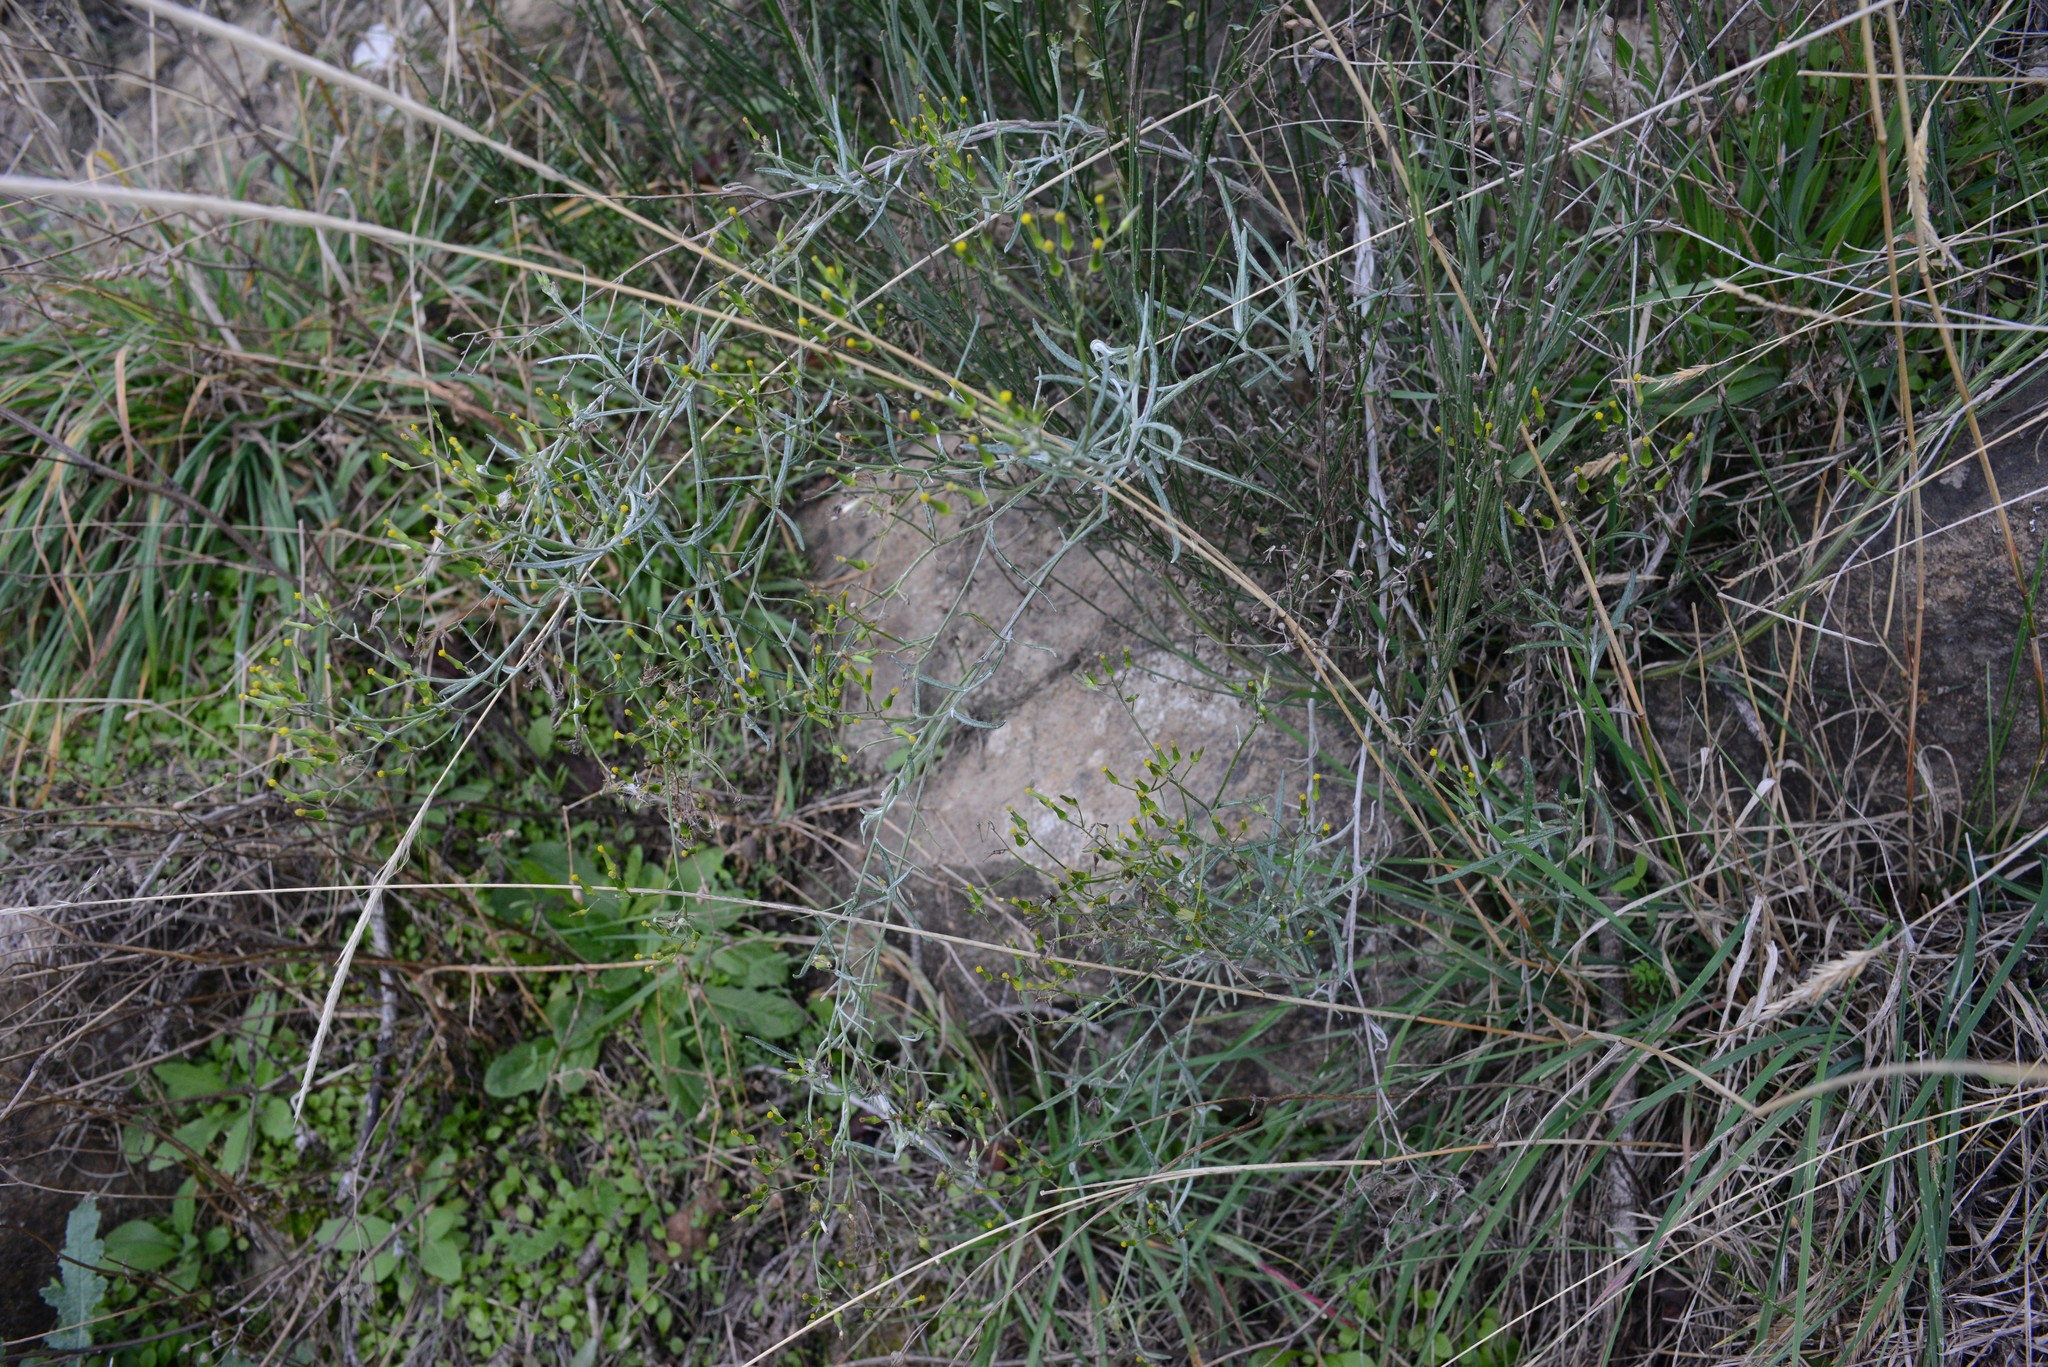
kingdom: Plantae
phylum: Tracheophyta
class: Magnoliopsida
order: Asterales
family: Asteraceae
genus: Senecio
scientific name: Senecio quadridentatus
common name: Cotton fireweed
